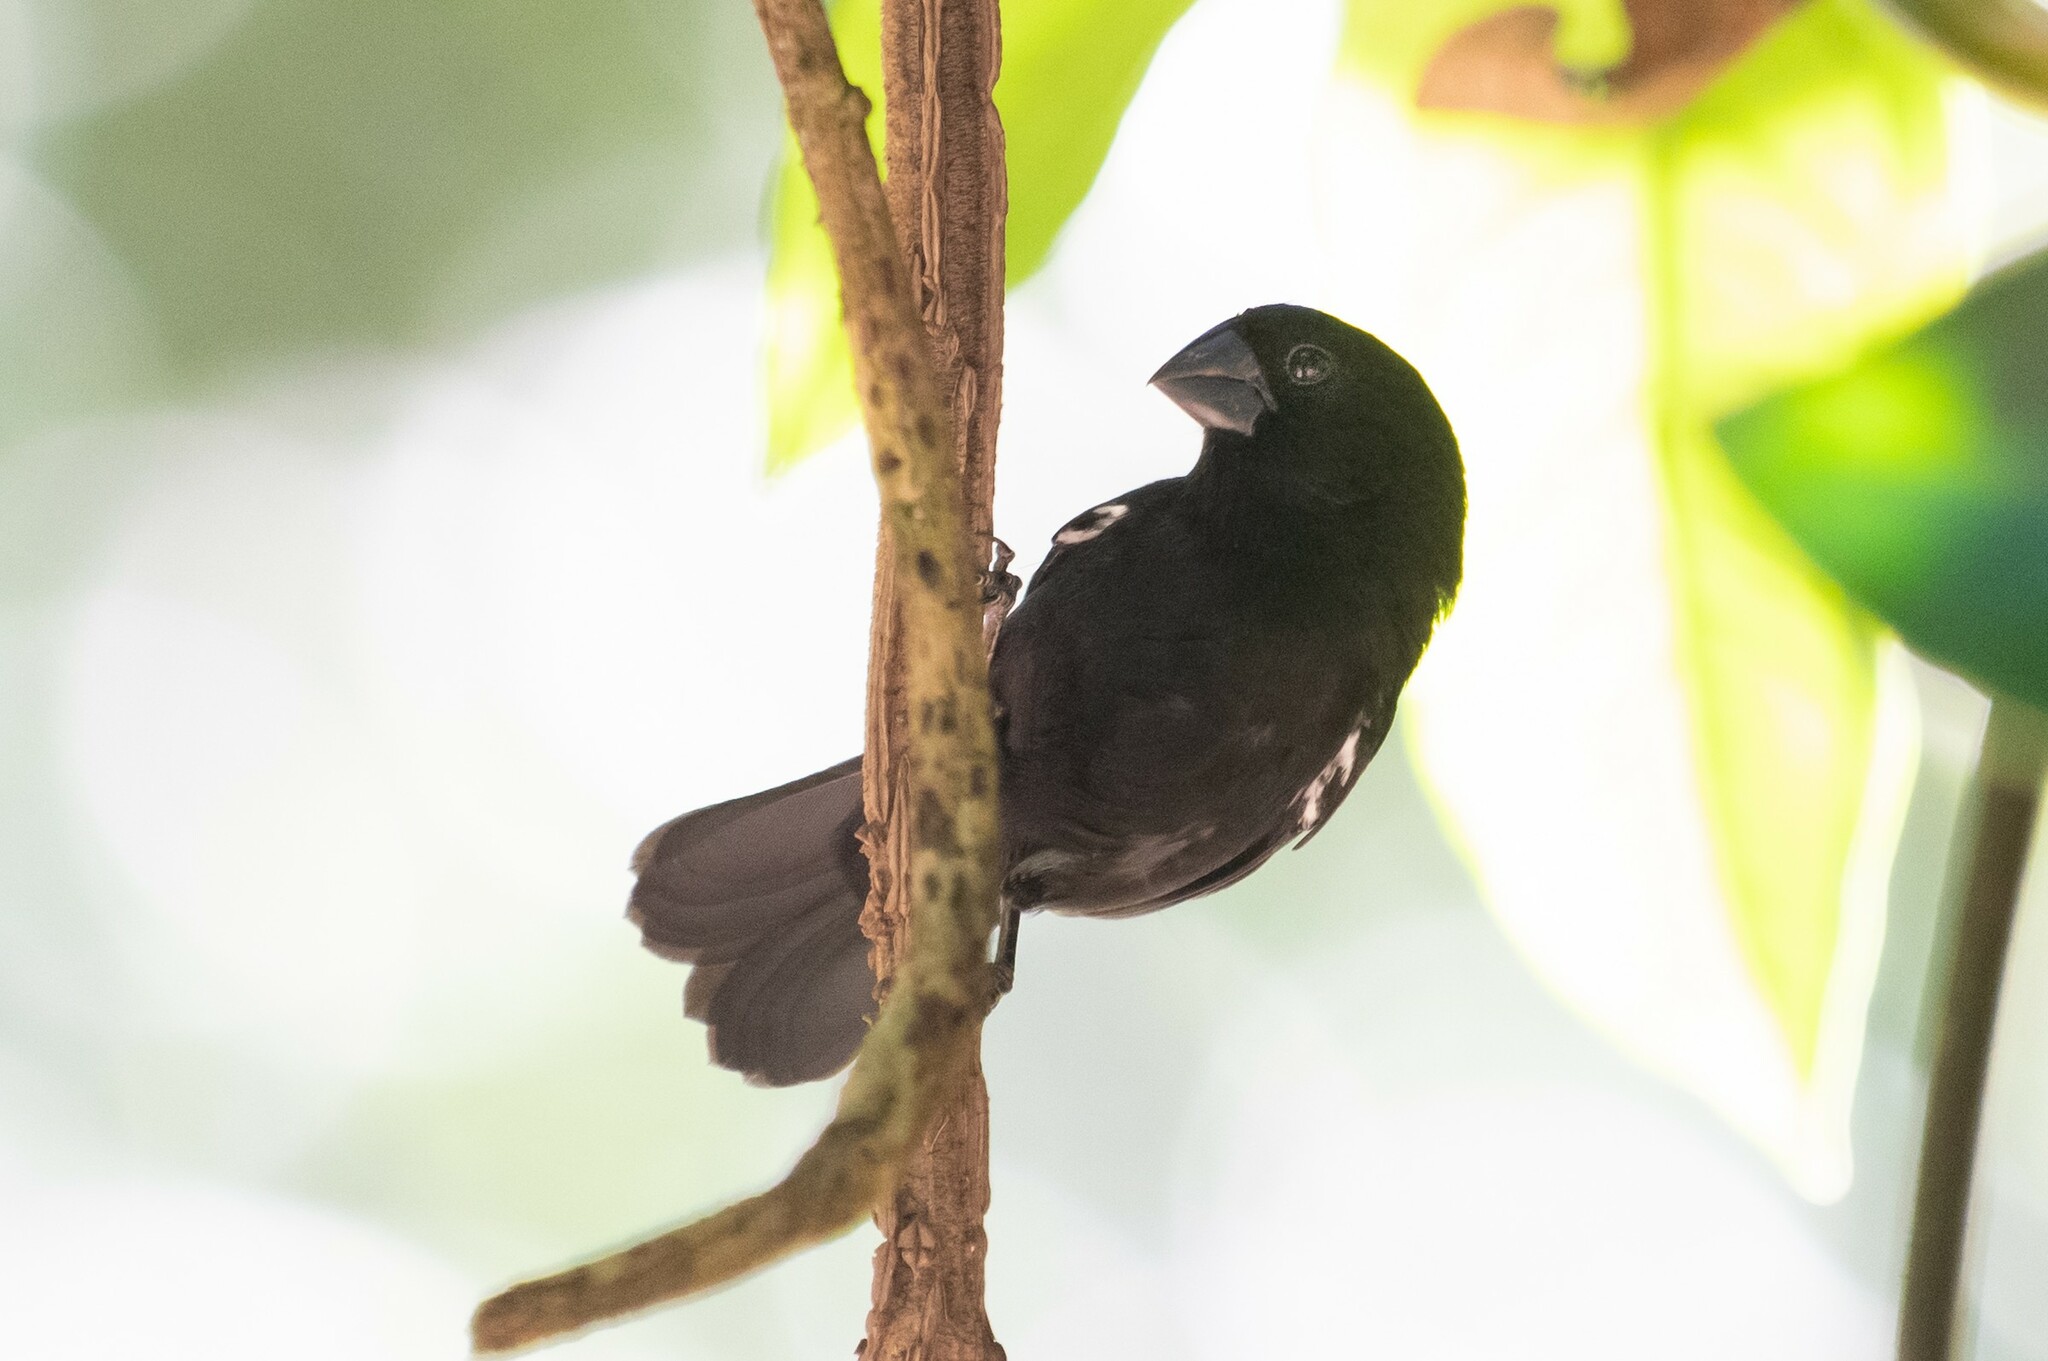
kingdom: Animalia
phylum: Chordata
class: Aves
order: Passeriformes
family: Thraupidae
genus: Sporophila
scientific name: Sporophila funerea
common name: Thick-billed seed-finch
